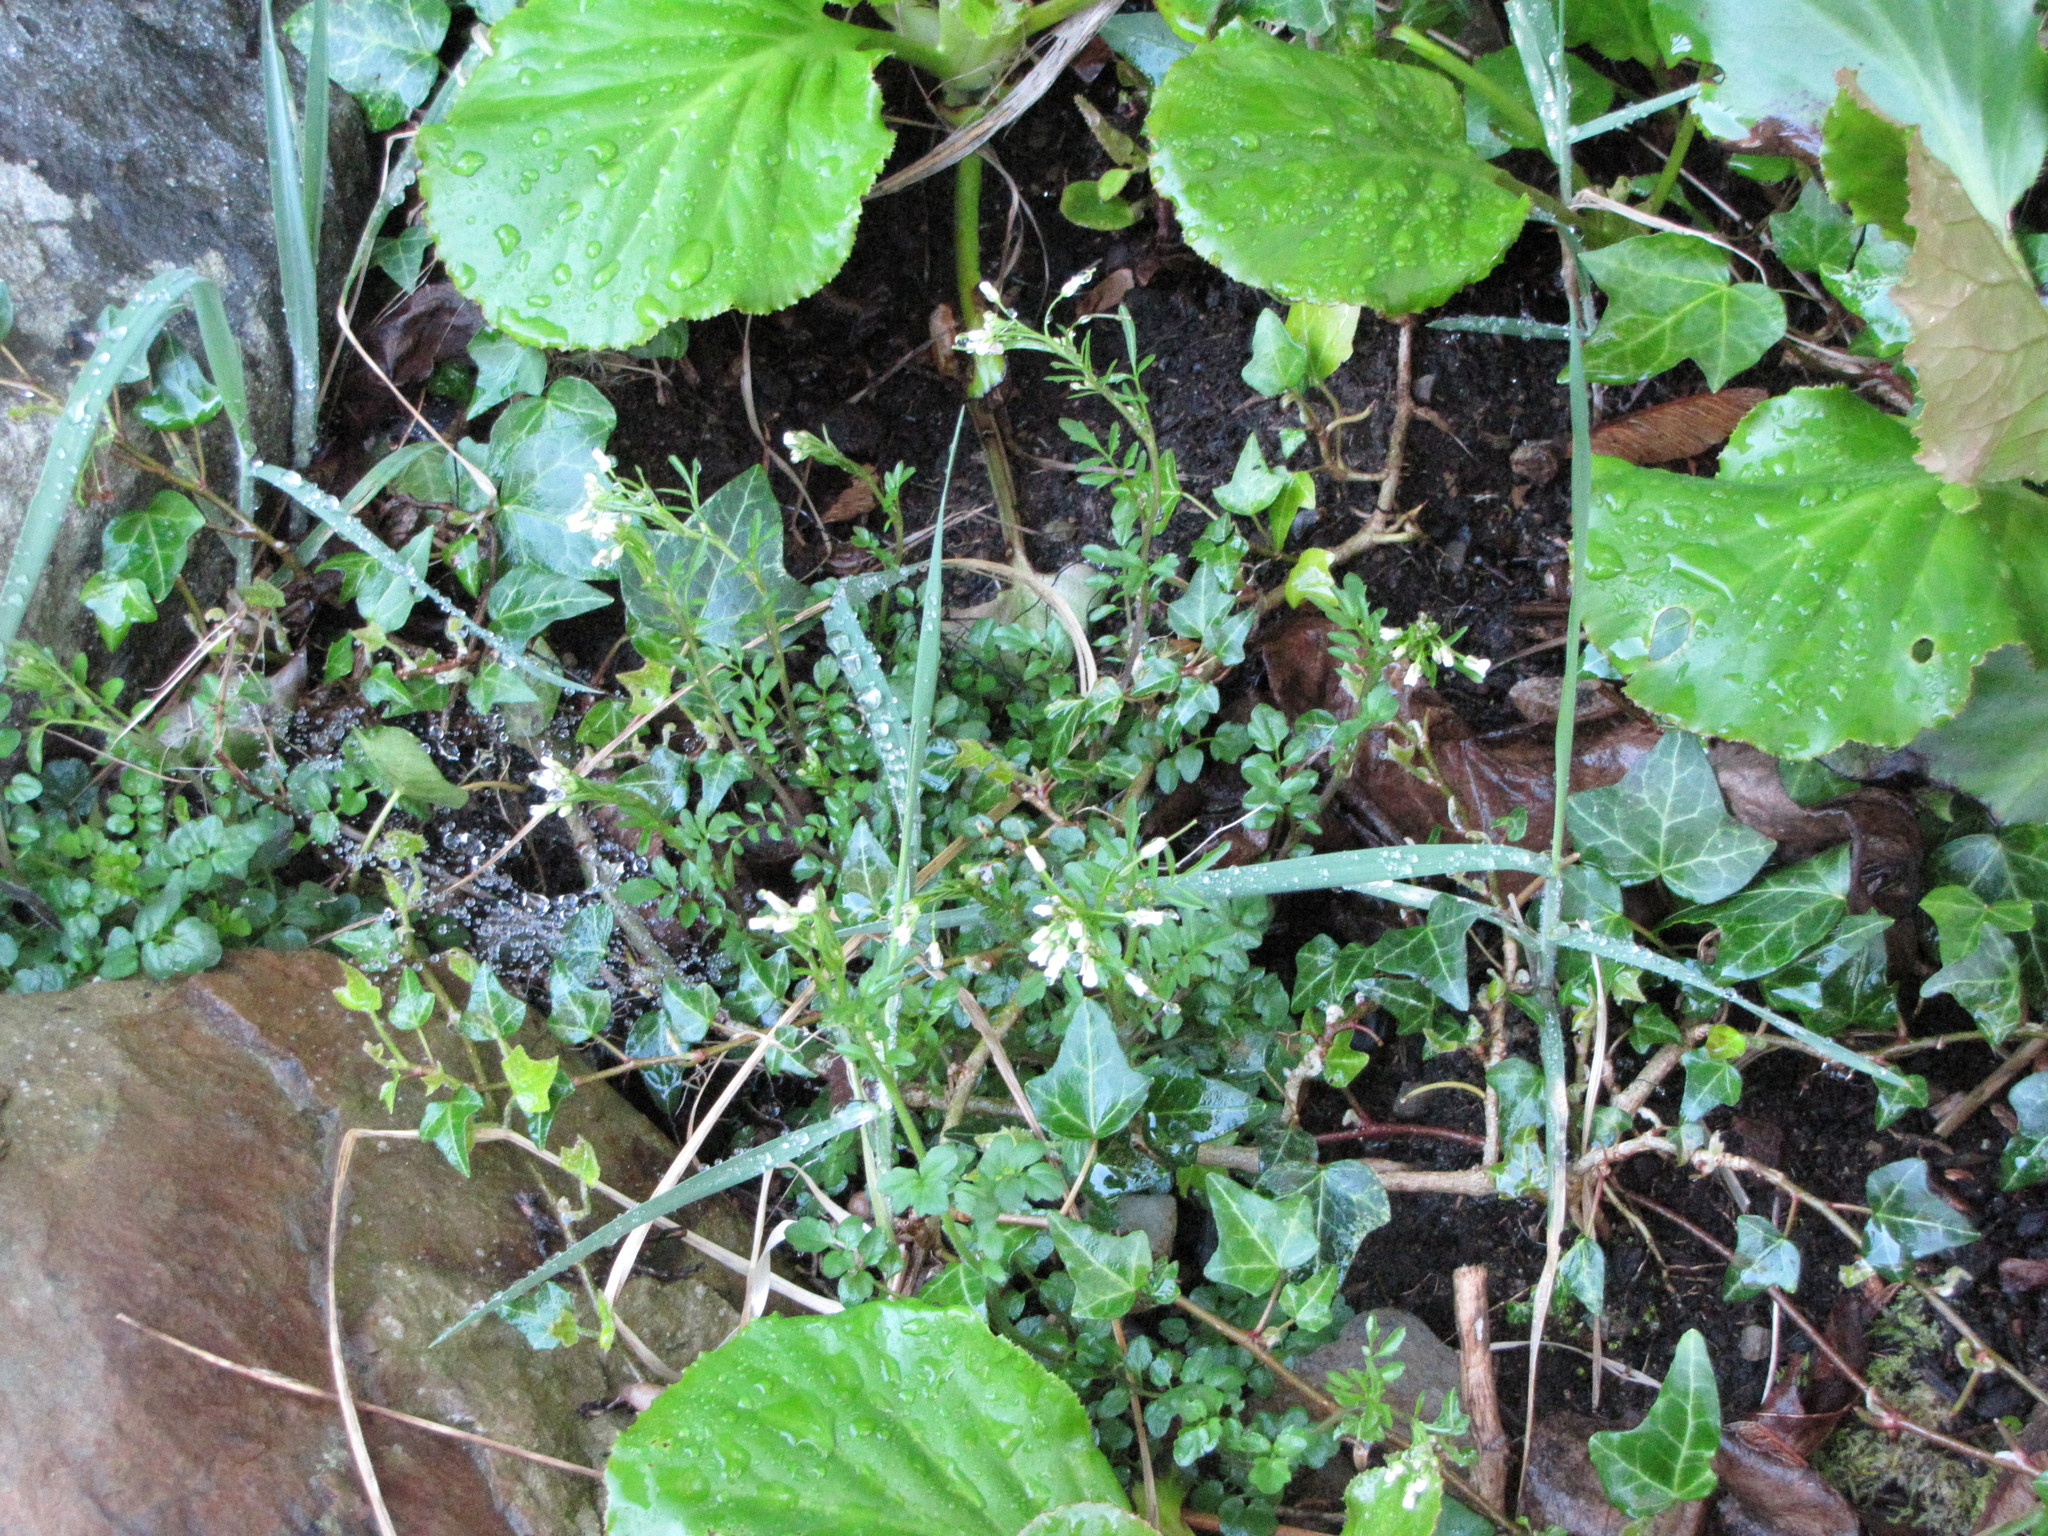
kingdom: Plantae
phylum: Tracheophyta
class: Magnoliopsida
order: Brassicales
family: Brassicaceae
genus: Cardamine
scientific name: Cardamine flexuosa
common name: Woodland bittercress
